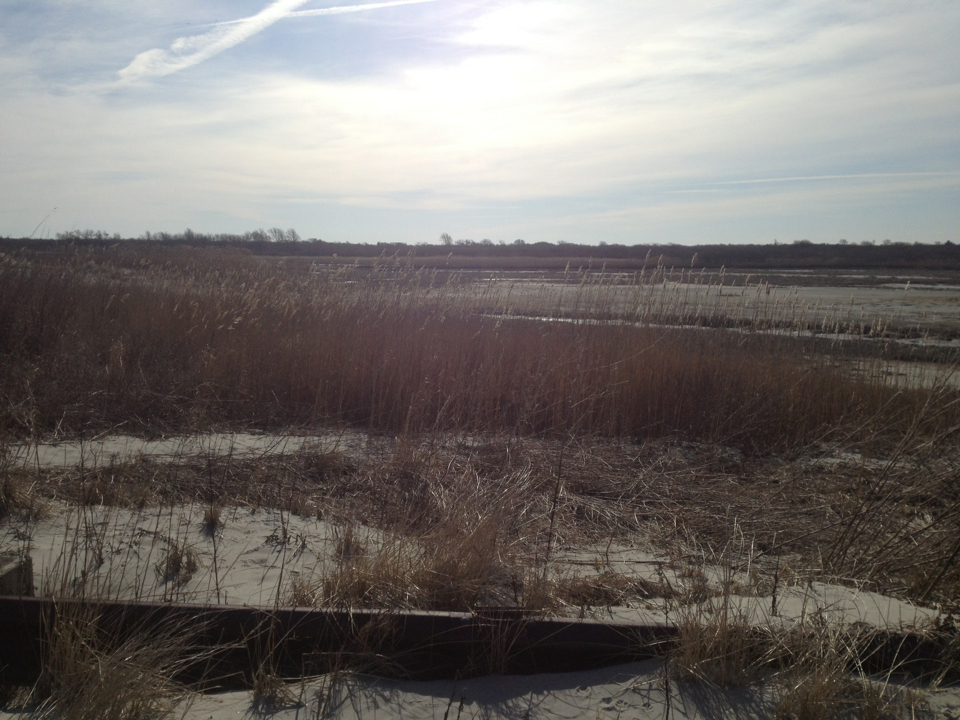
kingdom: Plantae
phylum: Tracheophyta
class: Liliopsida
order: Poales
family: Poaceae
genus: Phragmites
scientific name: Phragmites australis
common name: Common reed
